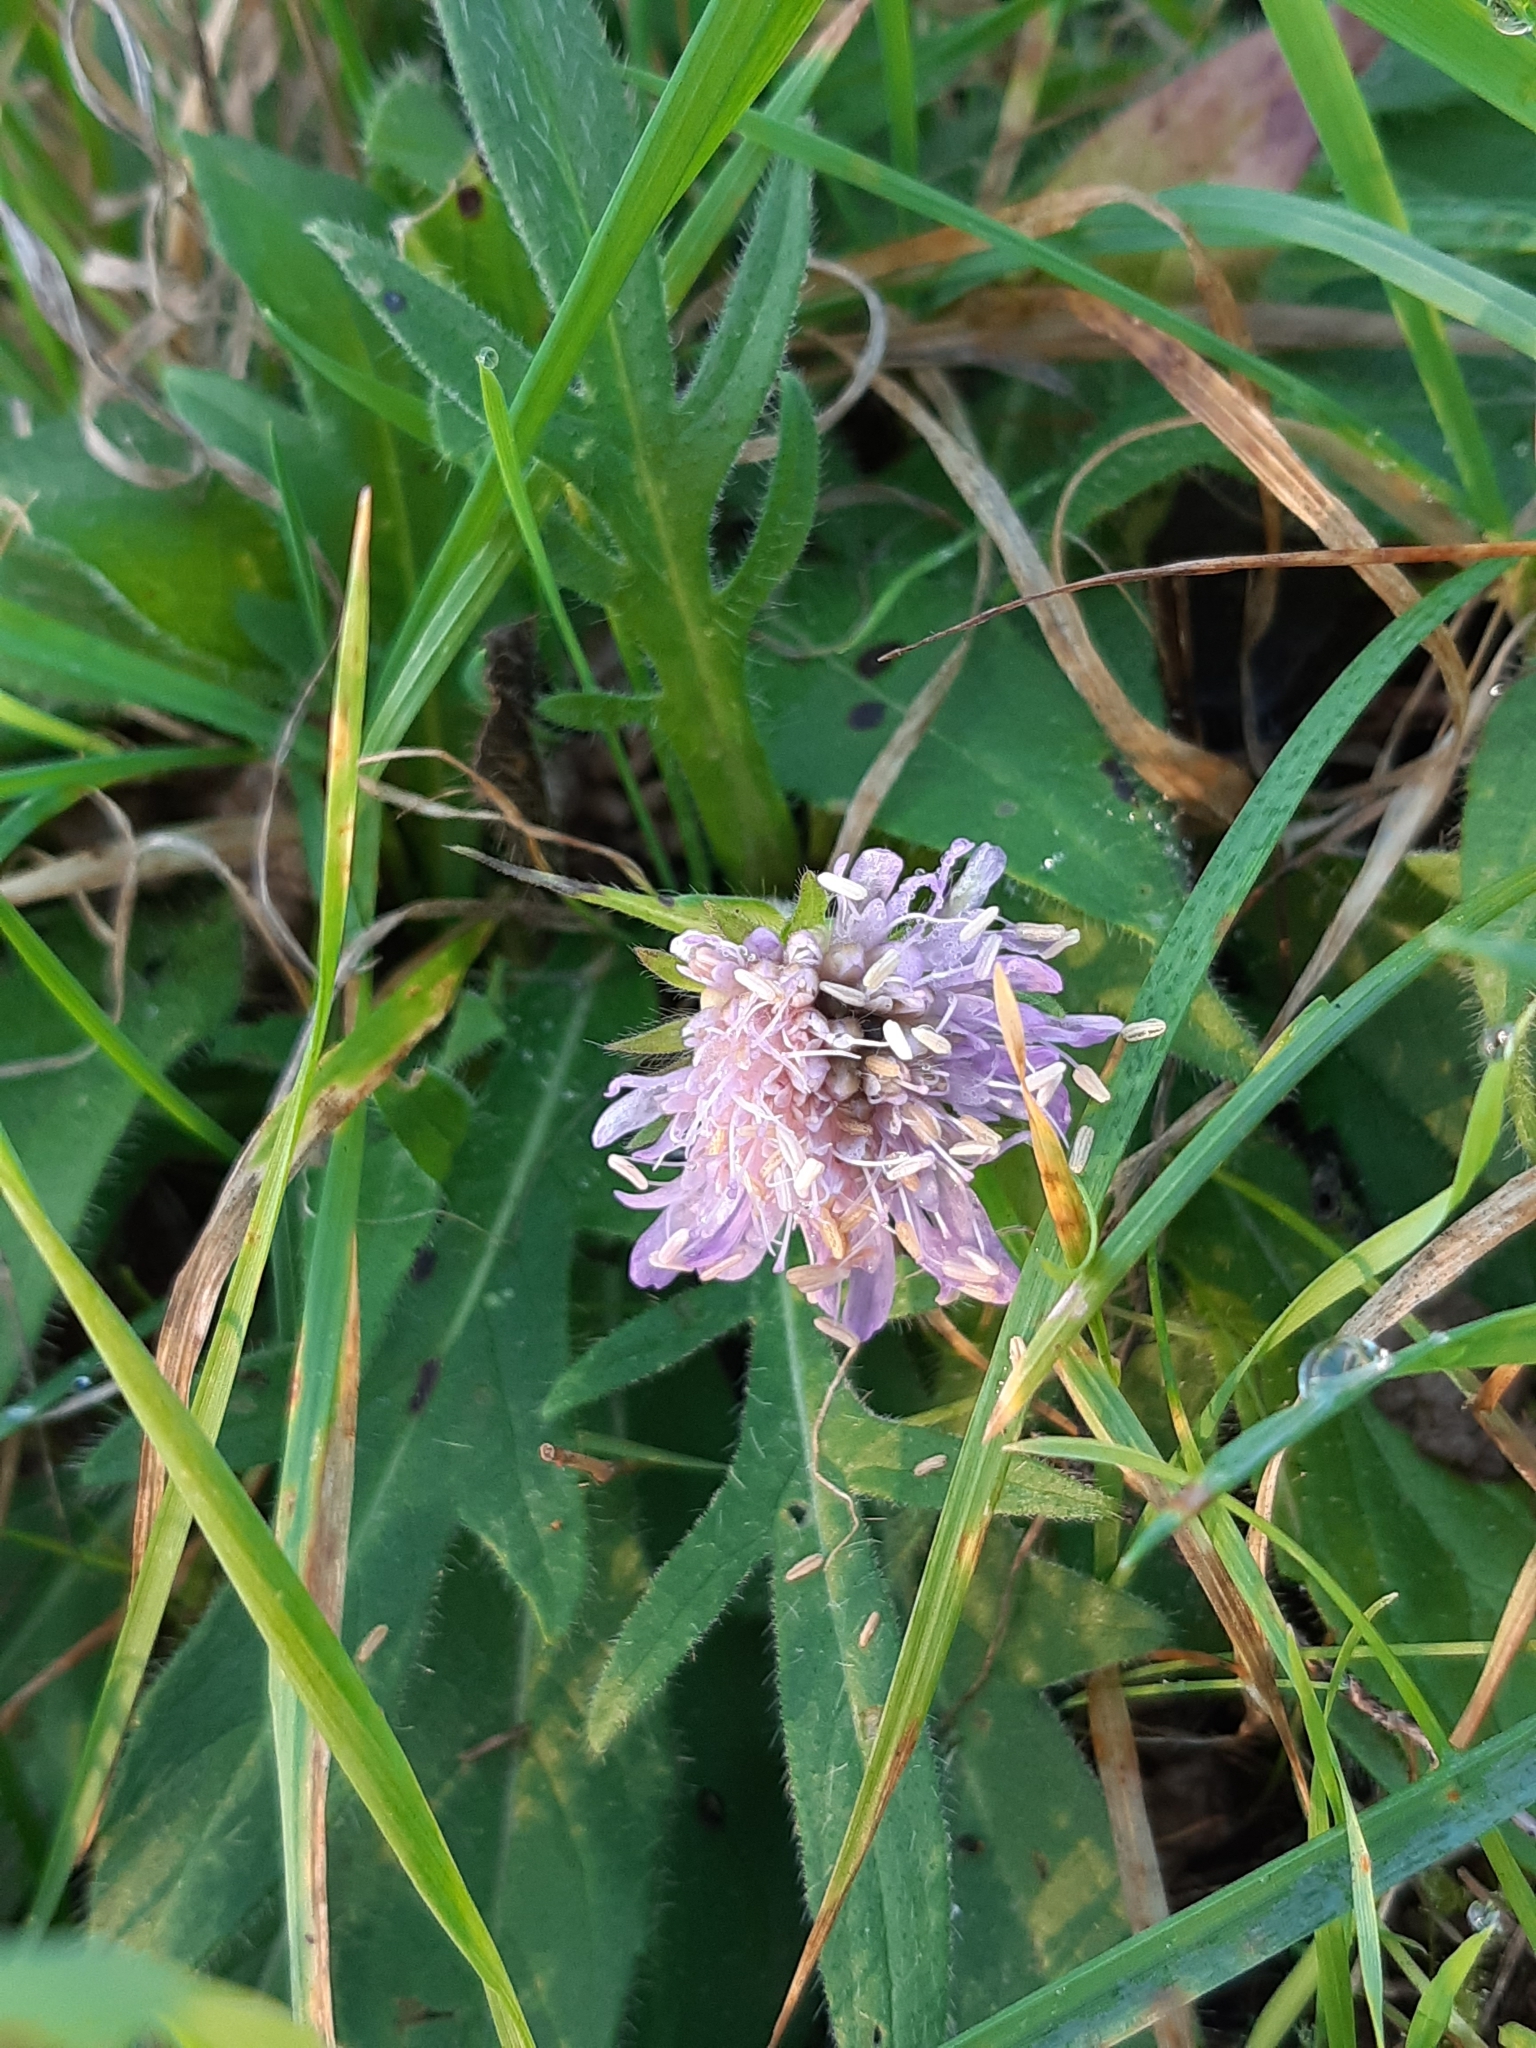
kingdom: Plantae
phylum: Tracheophyta
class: Magnoliopsida
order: Dipsacales
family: Caprifoliaceae
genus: Knautia
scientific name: Knautia arvensis
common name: Field scabiosa
